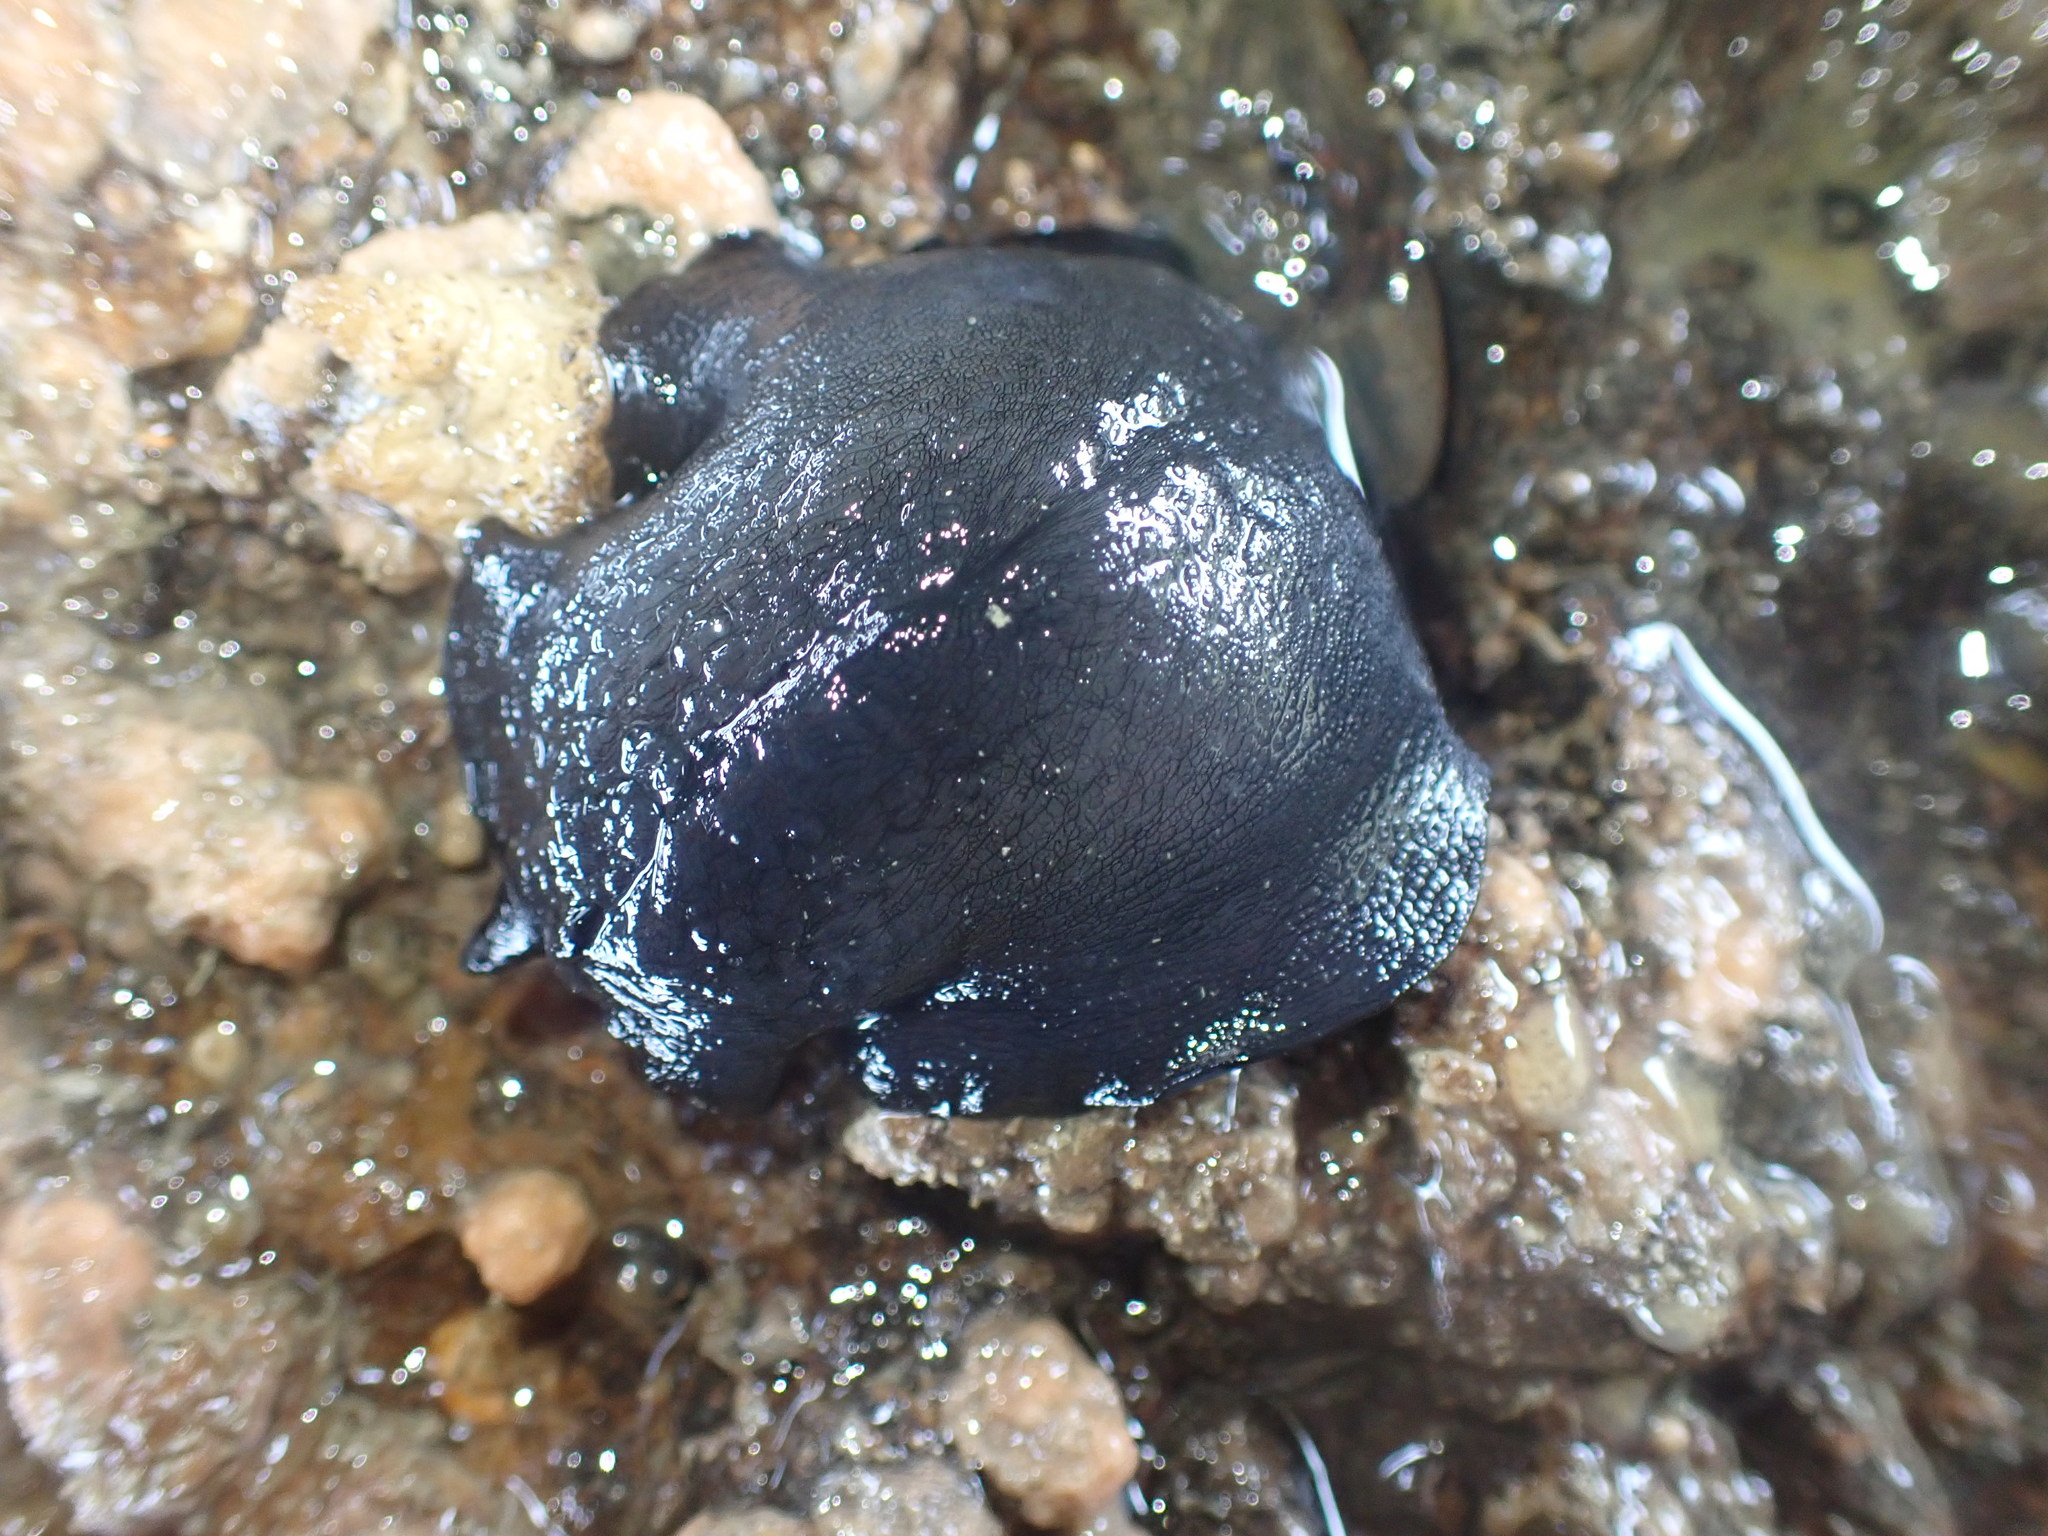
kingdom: Animalia
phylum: Mollusca
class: Gastropoda
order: Lepetellida
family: Fissurellidae
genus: Scutus
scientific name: Scutus breviculus
